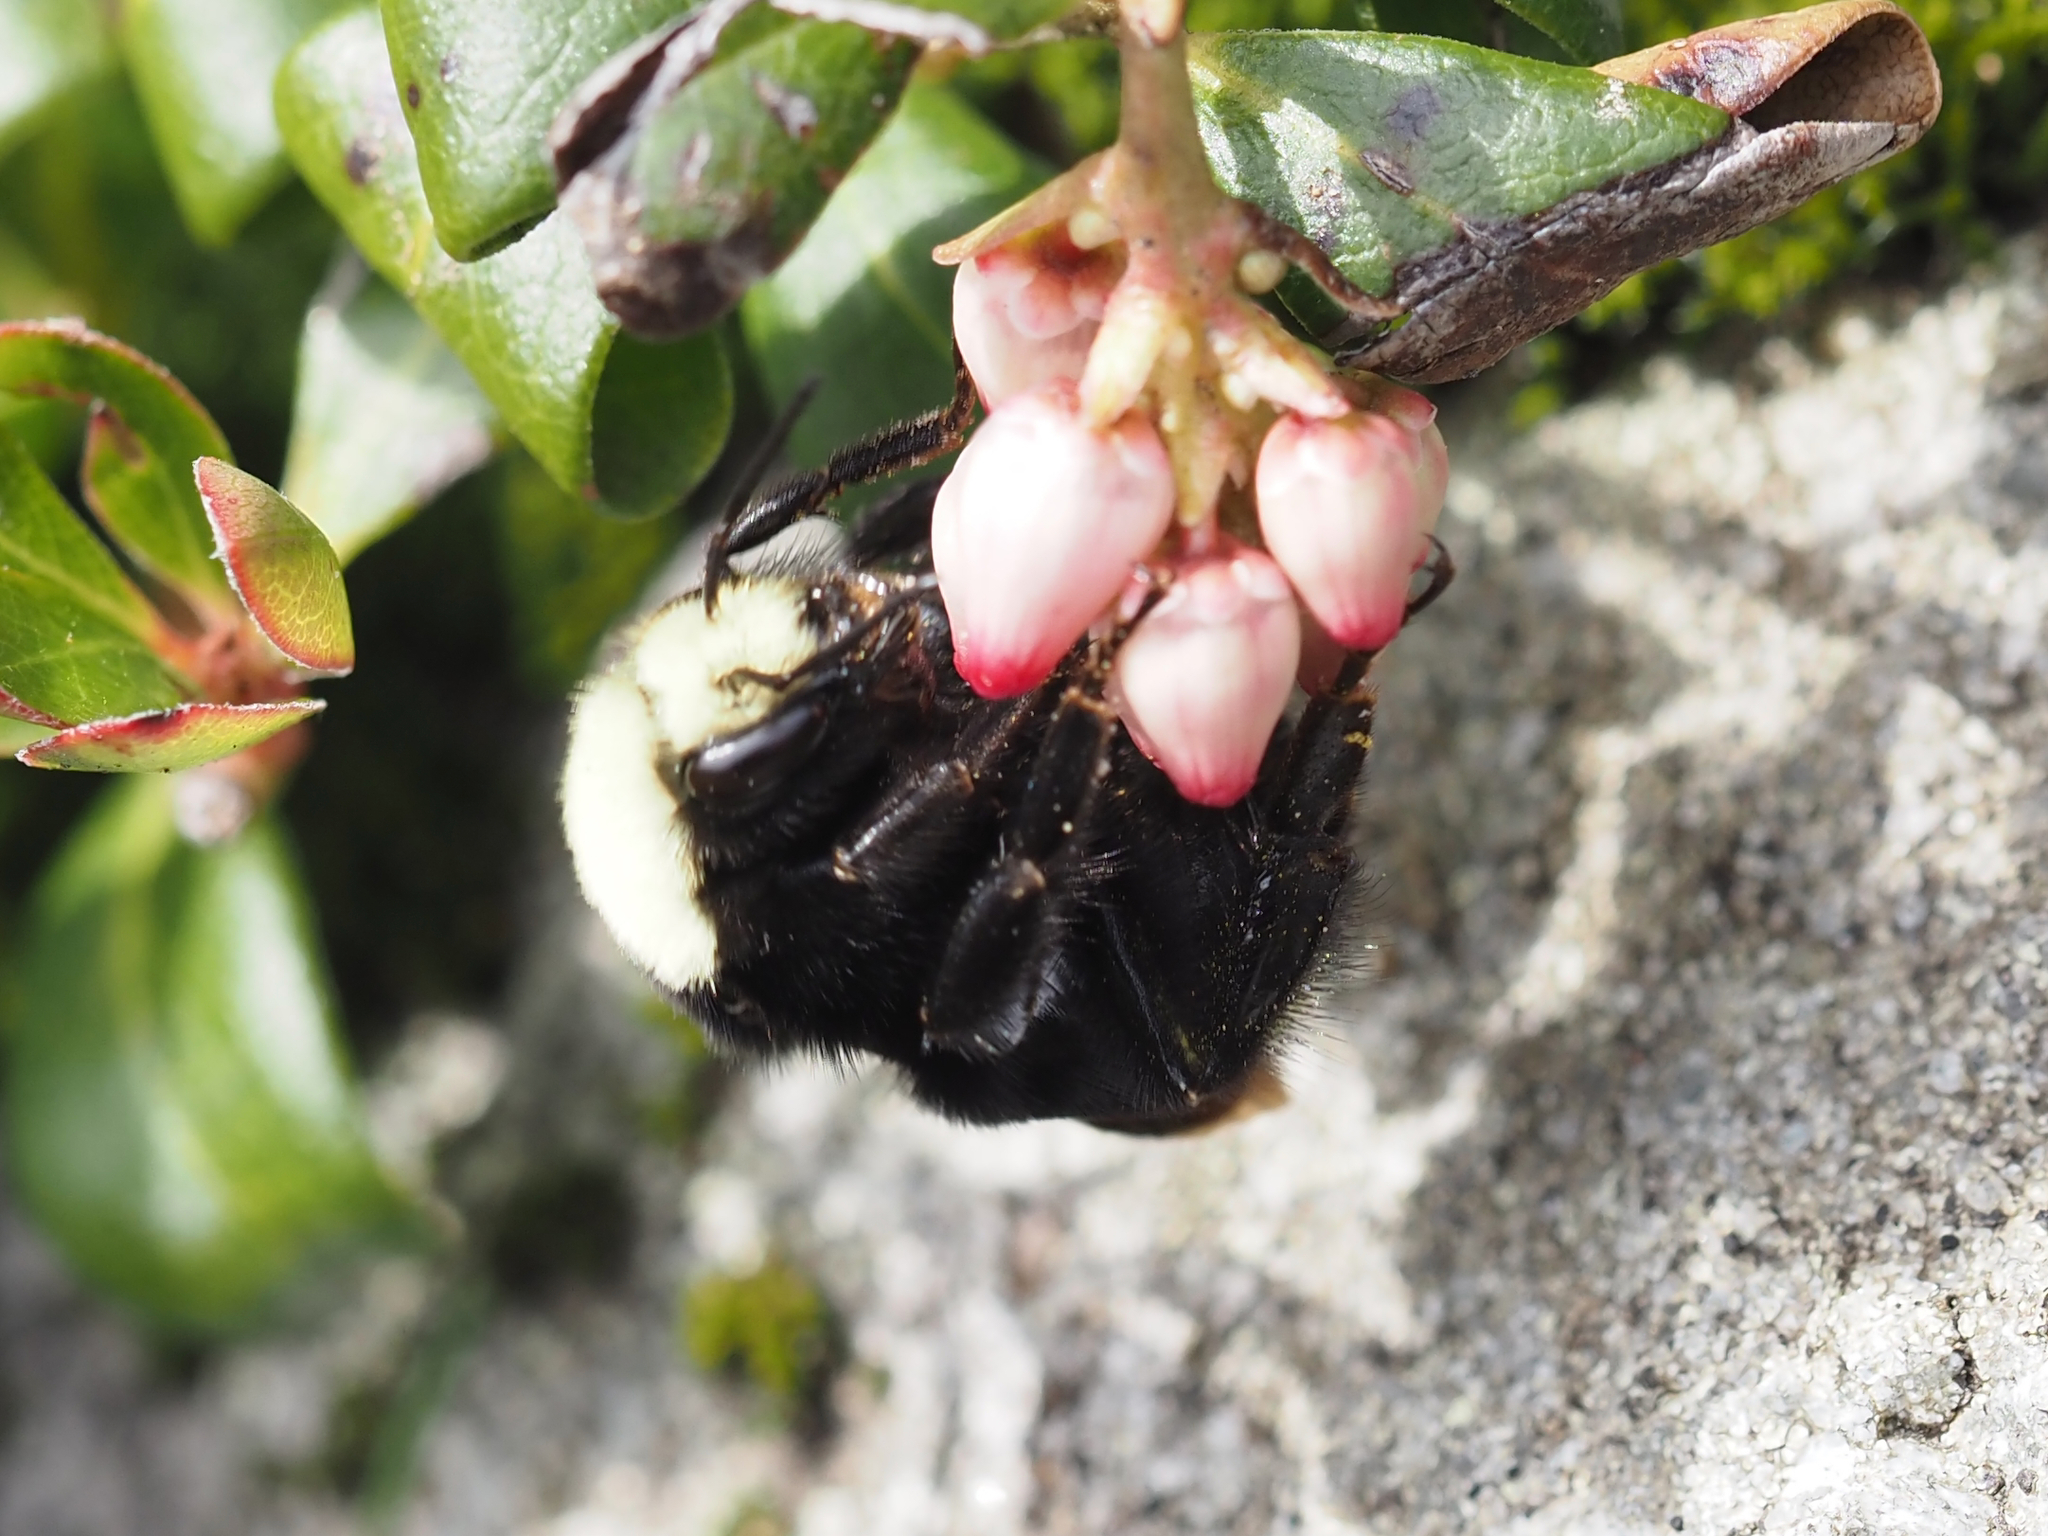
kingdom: Animalia
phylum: Arthropoda
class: Insecta
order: Hymenoptera
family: Apidae
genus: Bombus
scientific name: Bombus vosnesenskii
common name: Vosnesensky bumble bee
